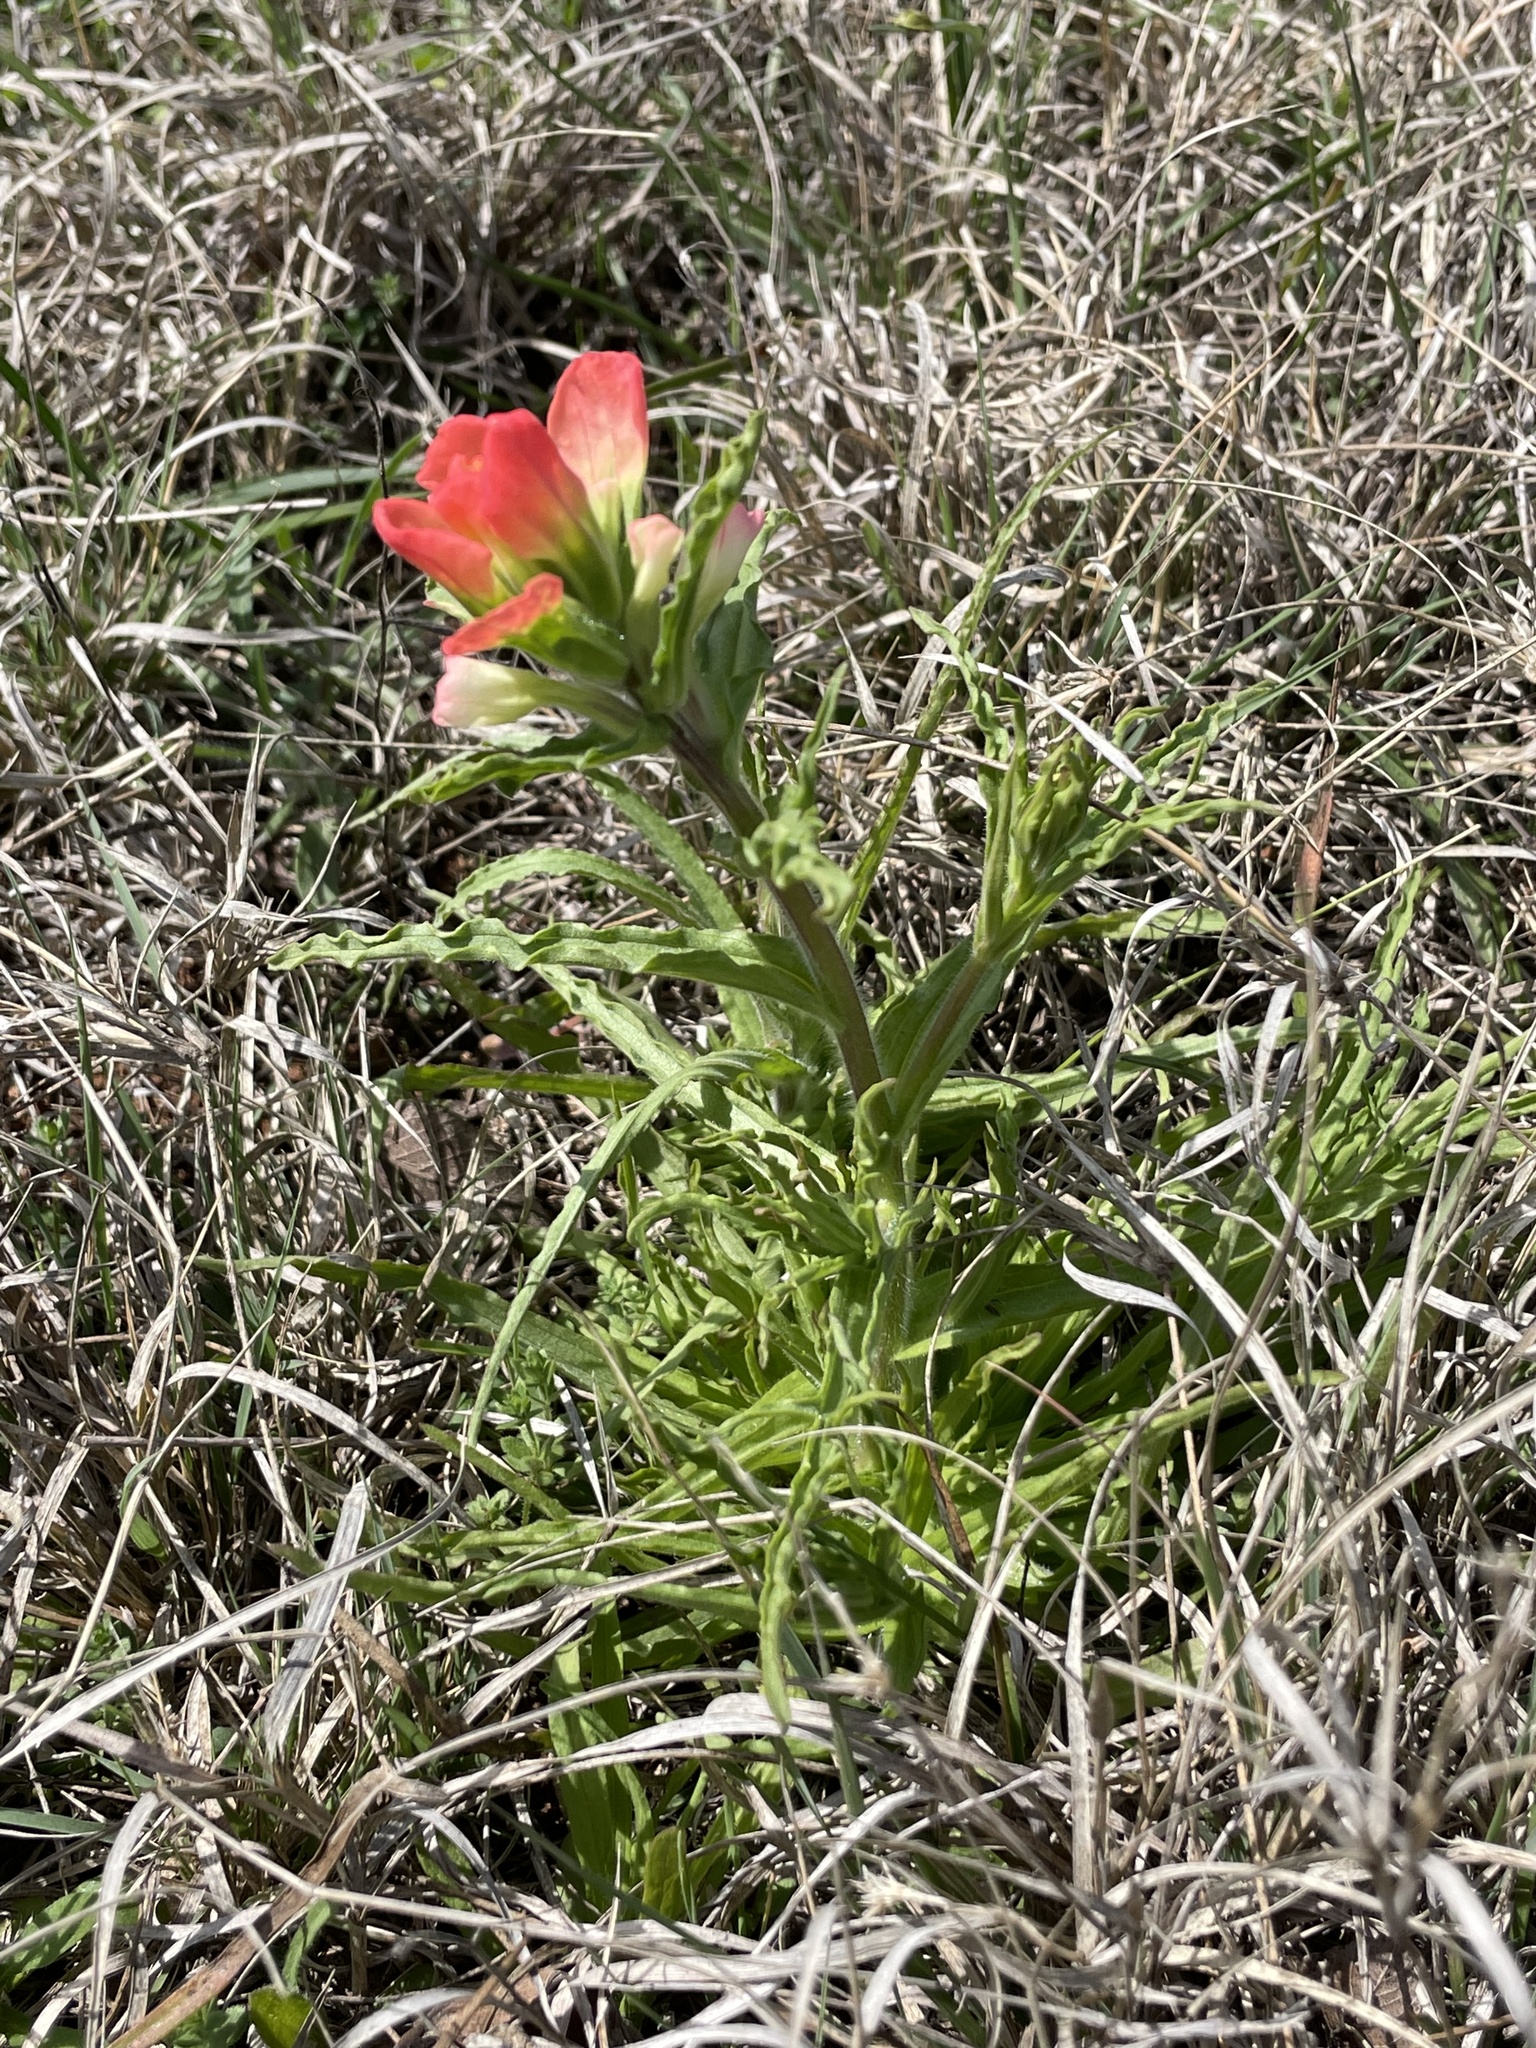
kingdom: Plantae
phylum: Tracheophyta
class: Magnoliopsida
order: Lamiales
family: Orobanchaceae
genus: Castilleja
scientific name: Castilleja indivisa
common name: Texas paintbrush
